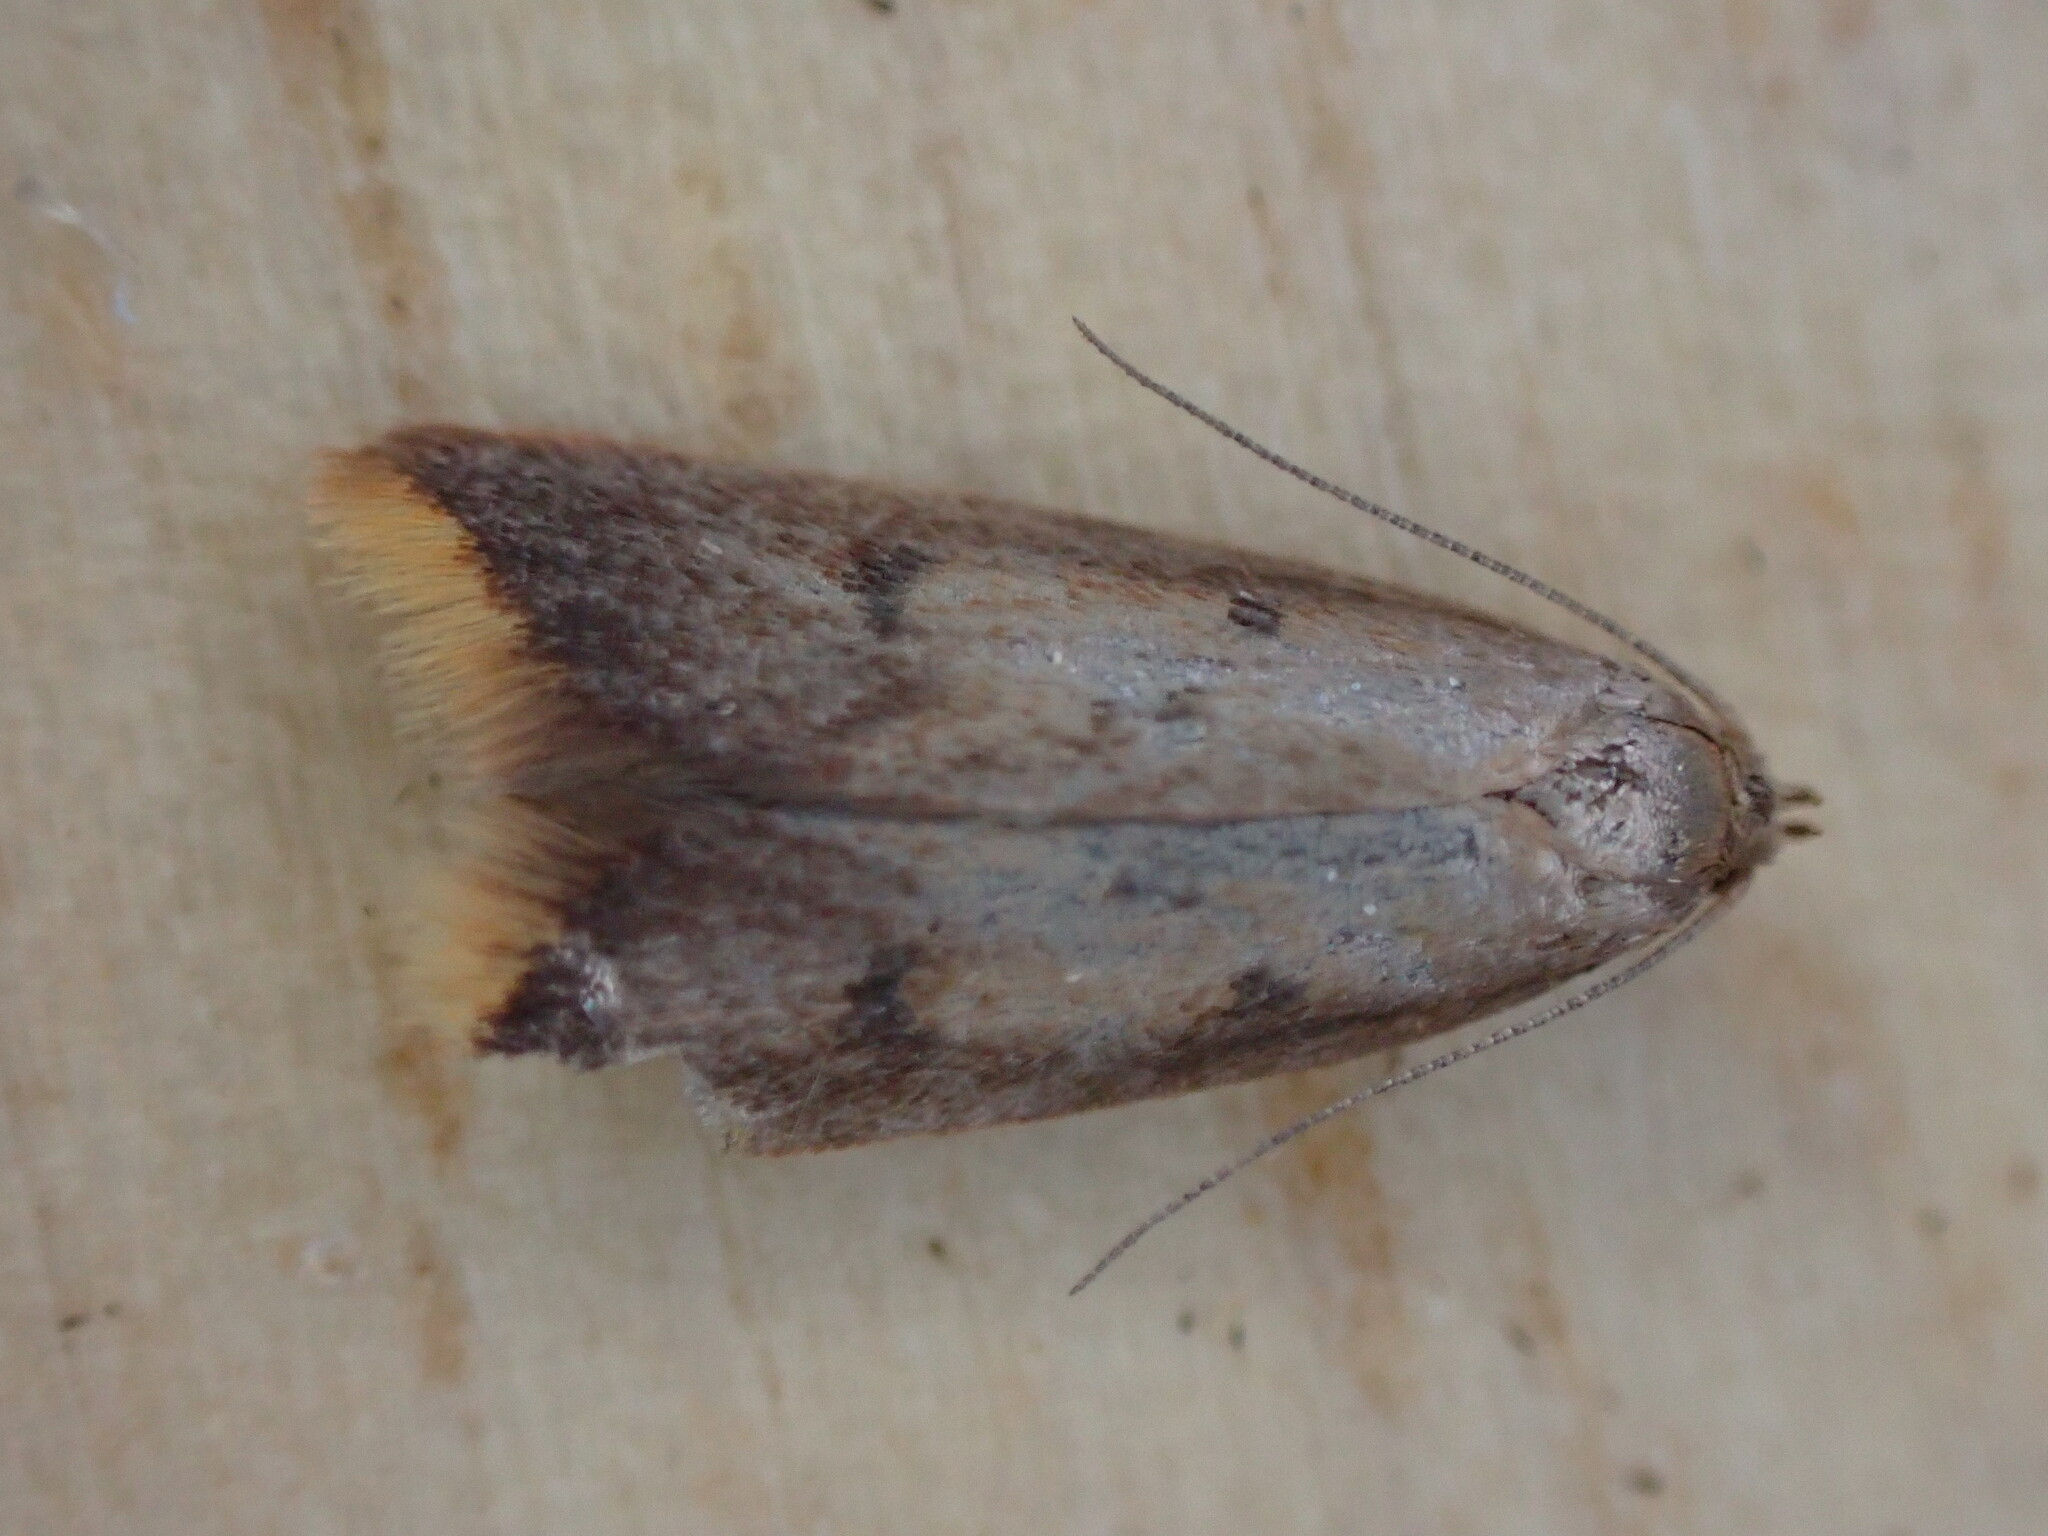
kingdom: Animalia
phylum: Arthropoda
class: Insecta
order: Lepidoptera
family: Oecophoridae
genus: Tachystola
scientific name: Tachystola acroxantha
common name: Ruddy streak
